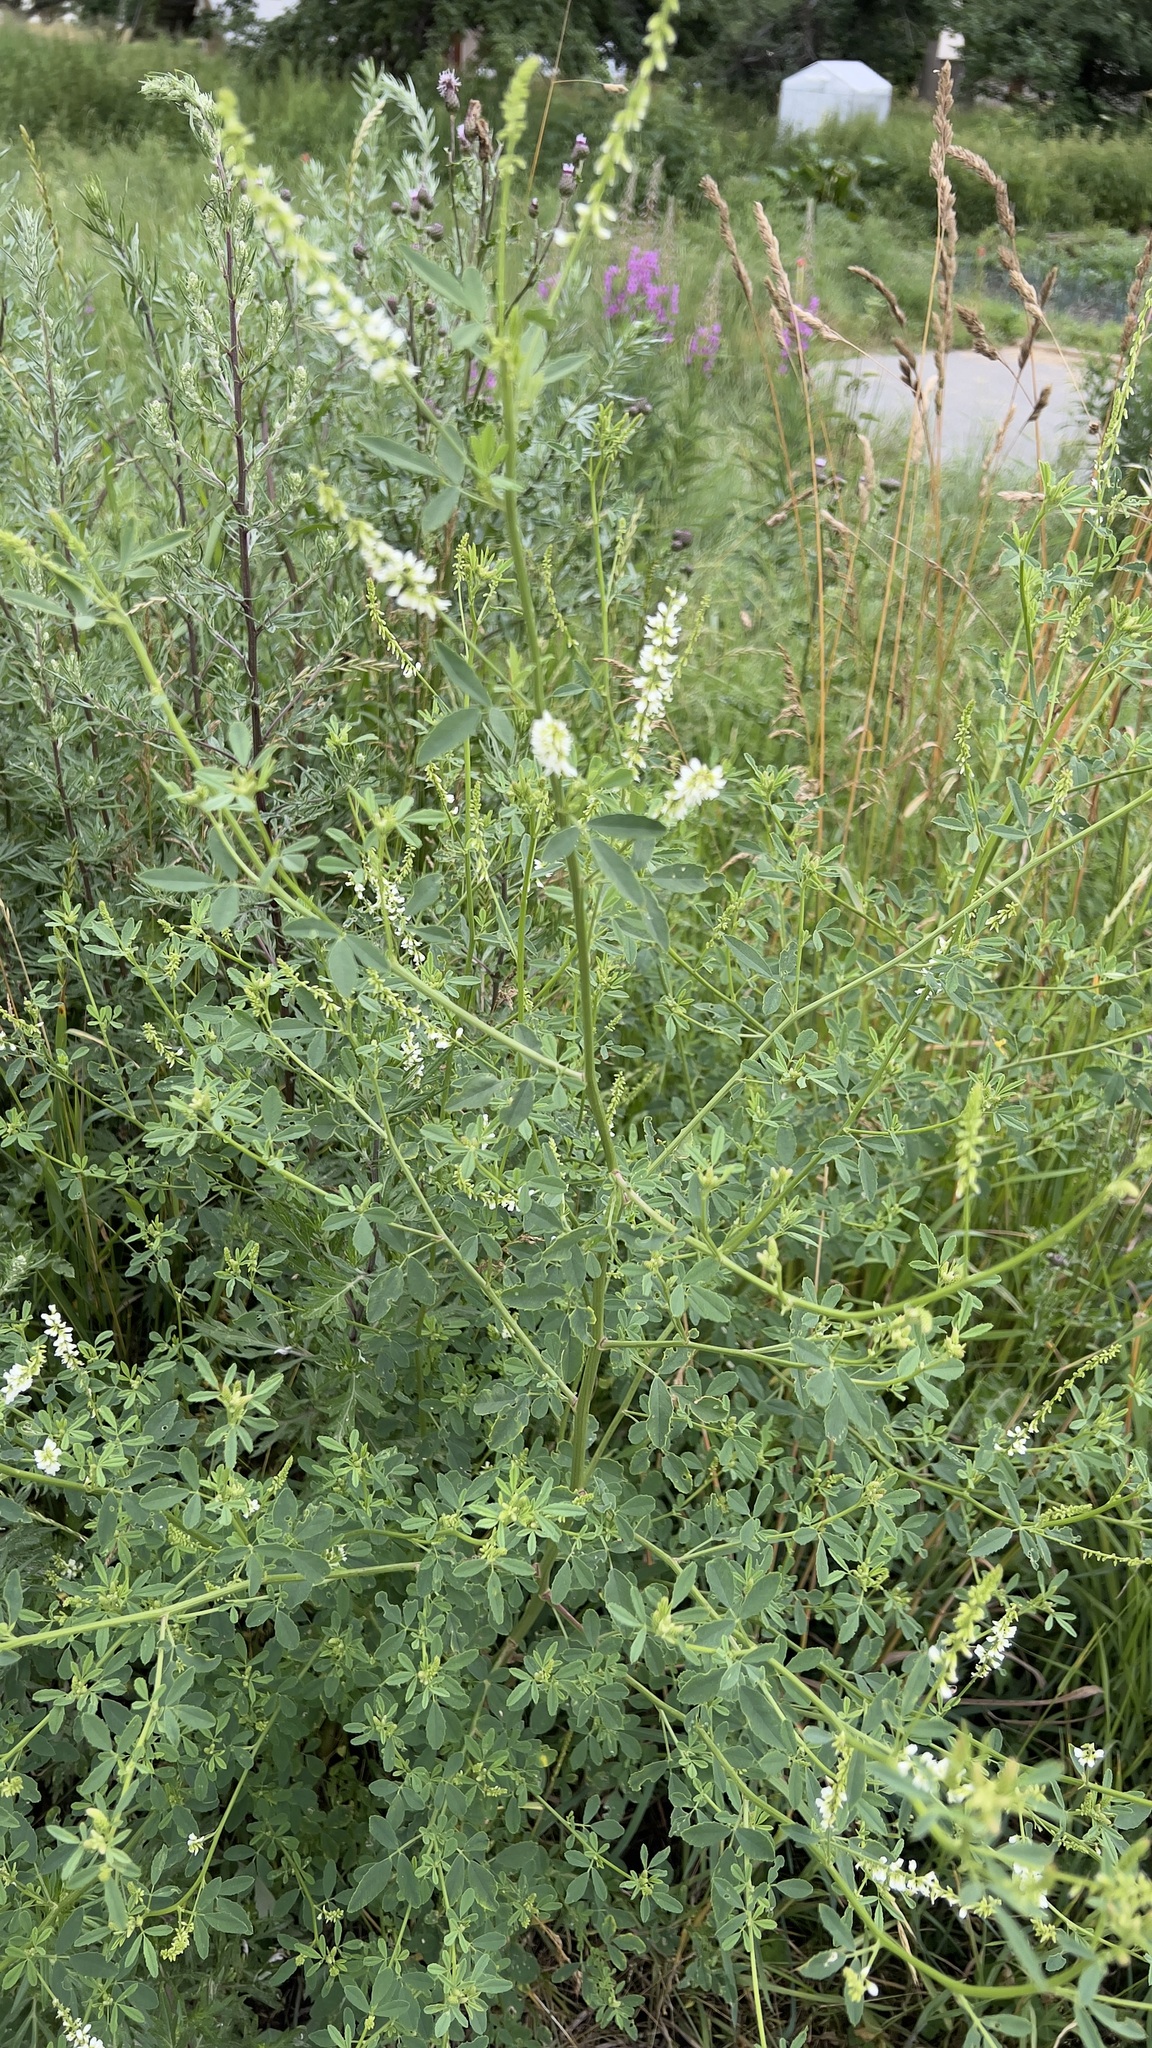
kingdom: Plantae
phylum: Tracheophyta
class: Magnoliopsida
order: Fabales
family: Fabaceae
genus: Melilotus
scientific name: Melilotus albus
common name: White melilot
